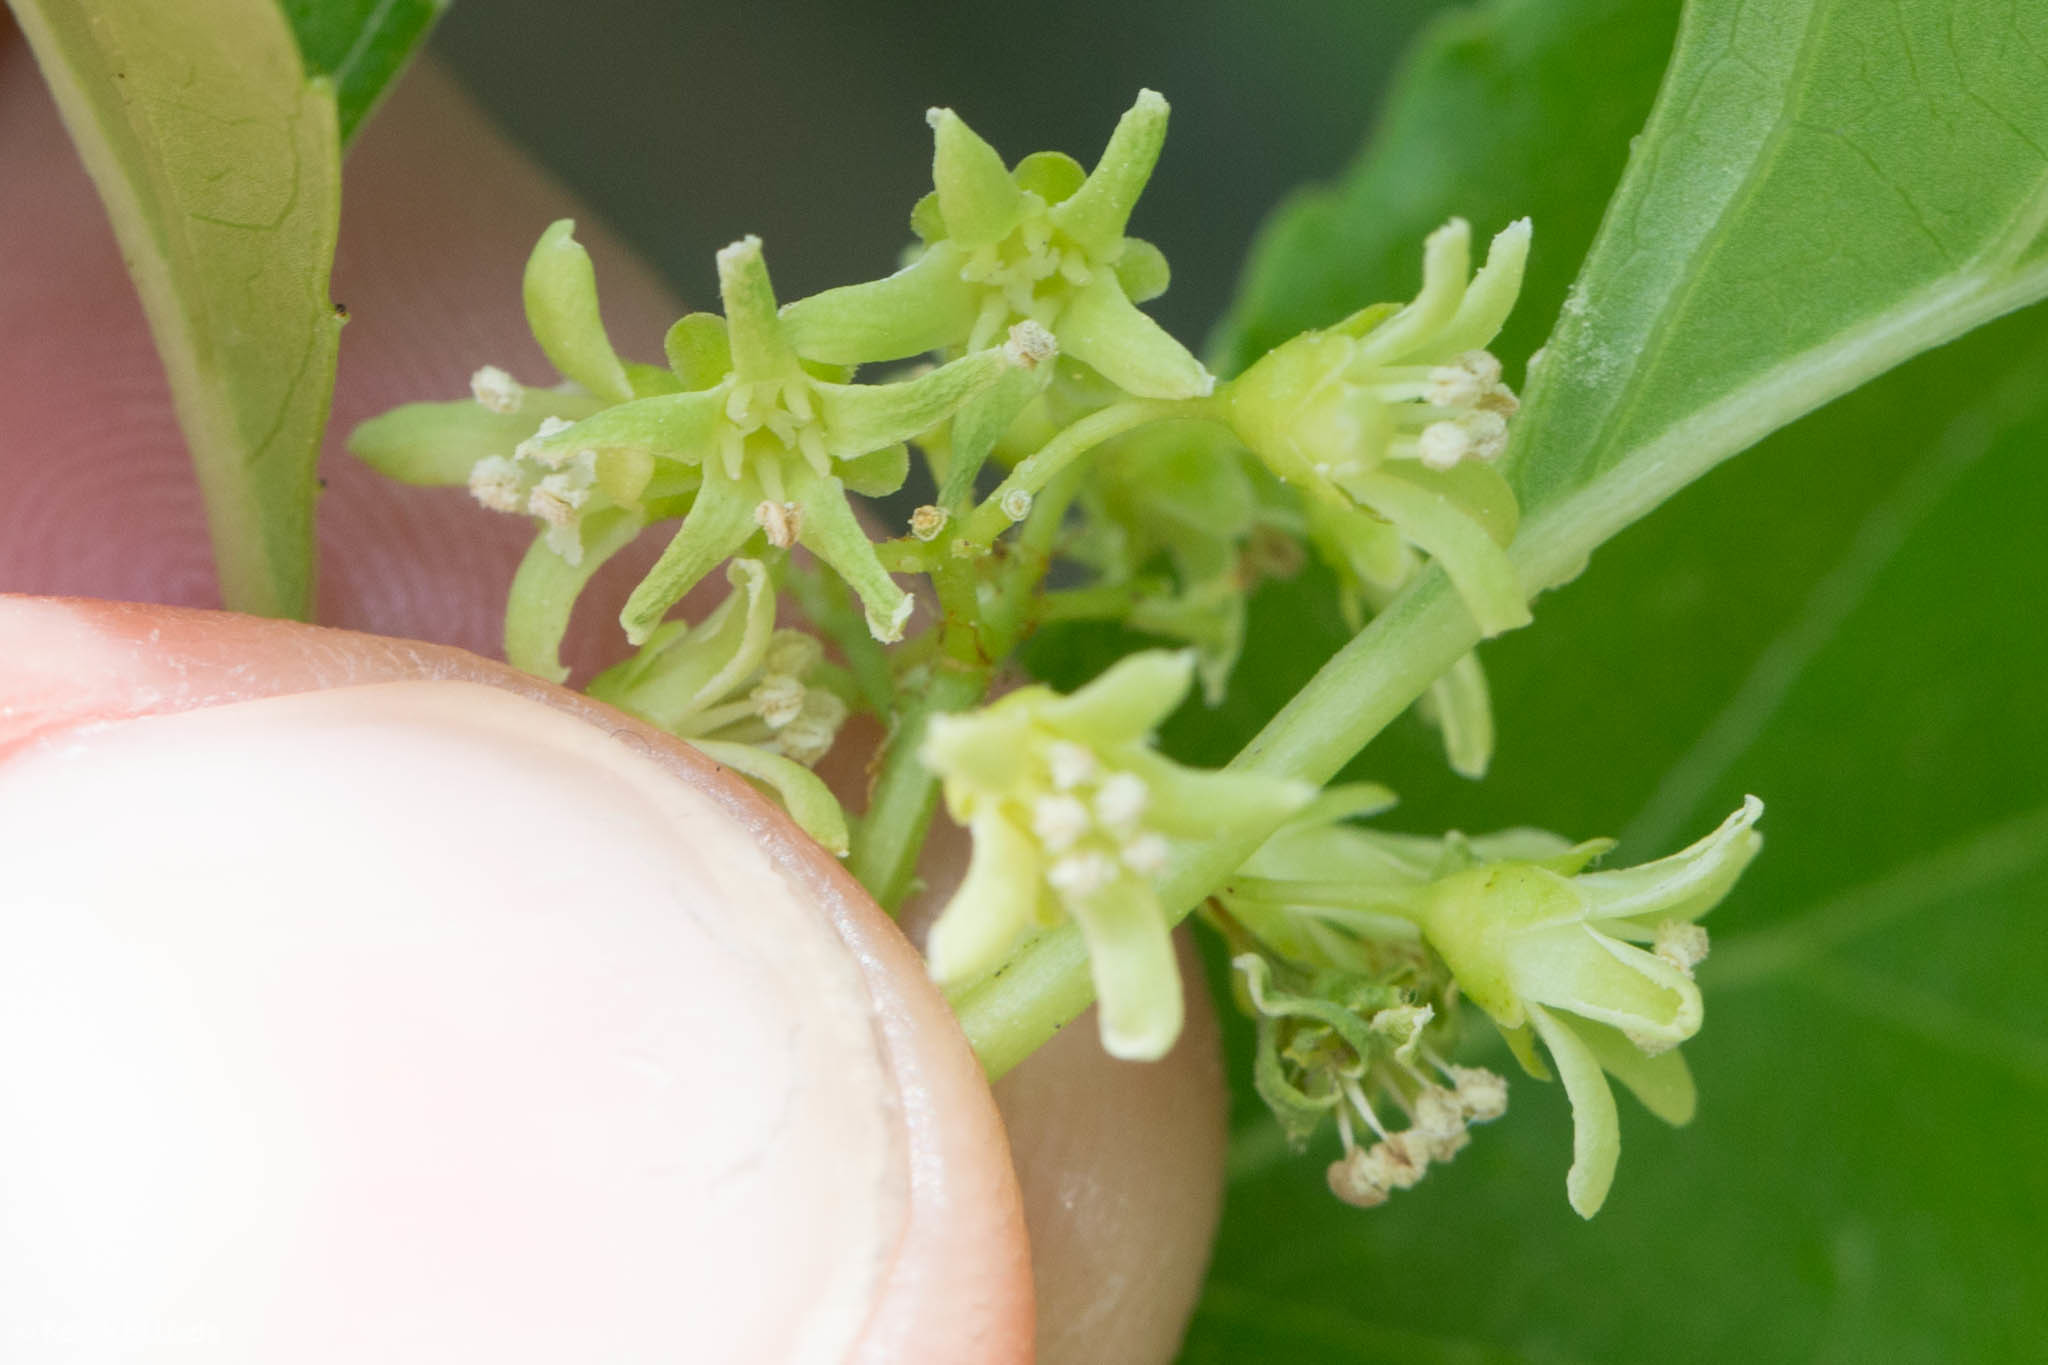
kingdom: Plantae
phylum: Tracheophyta
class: Magnoliopsida
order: Celastrales
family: Celastraceae
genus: Celastrus
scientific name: Celastrus orbiculatus
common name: Oriental bittersweet
